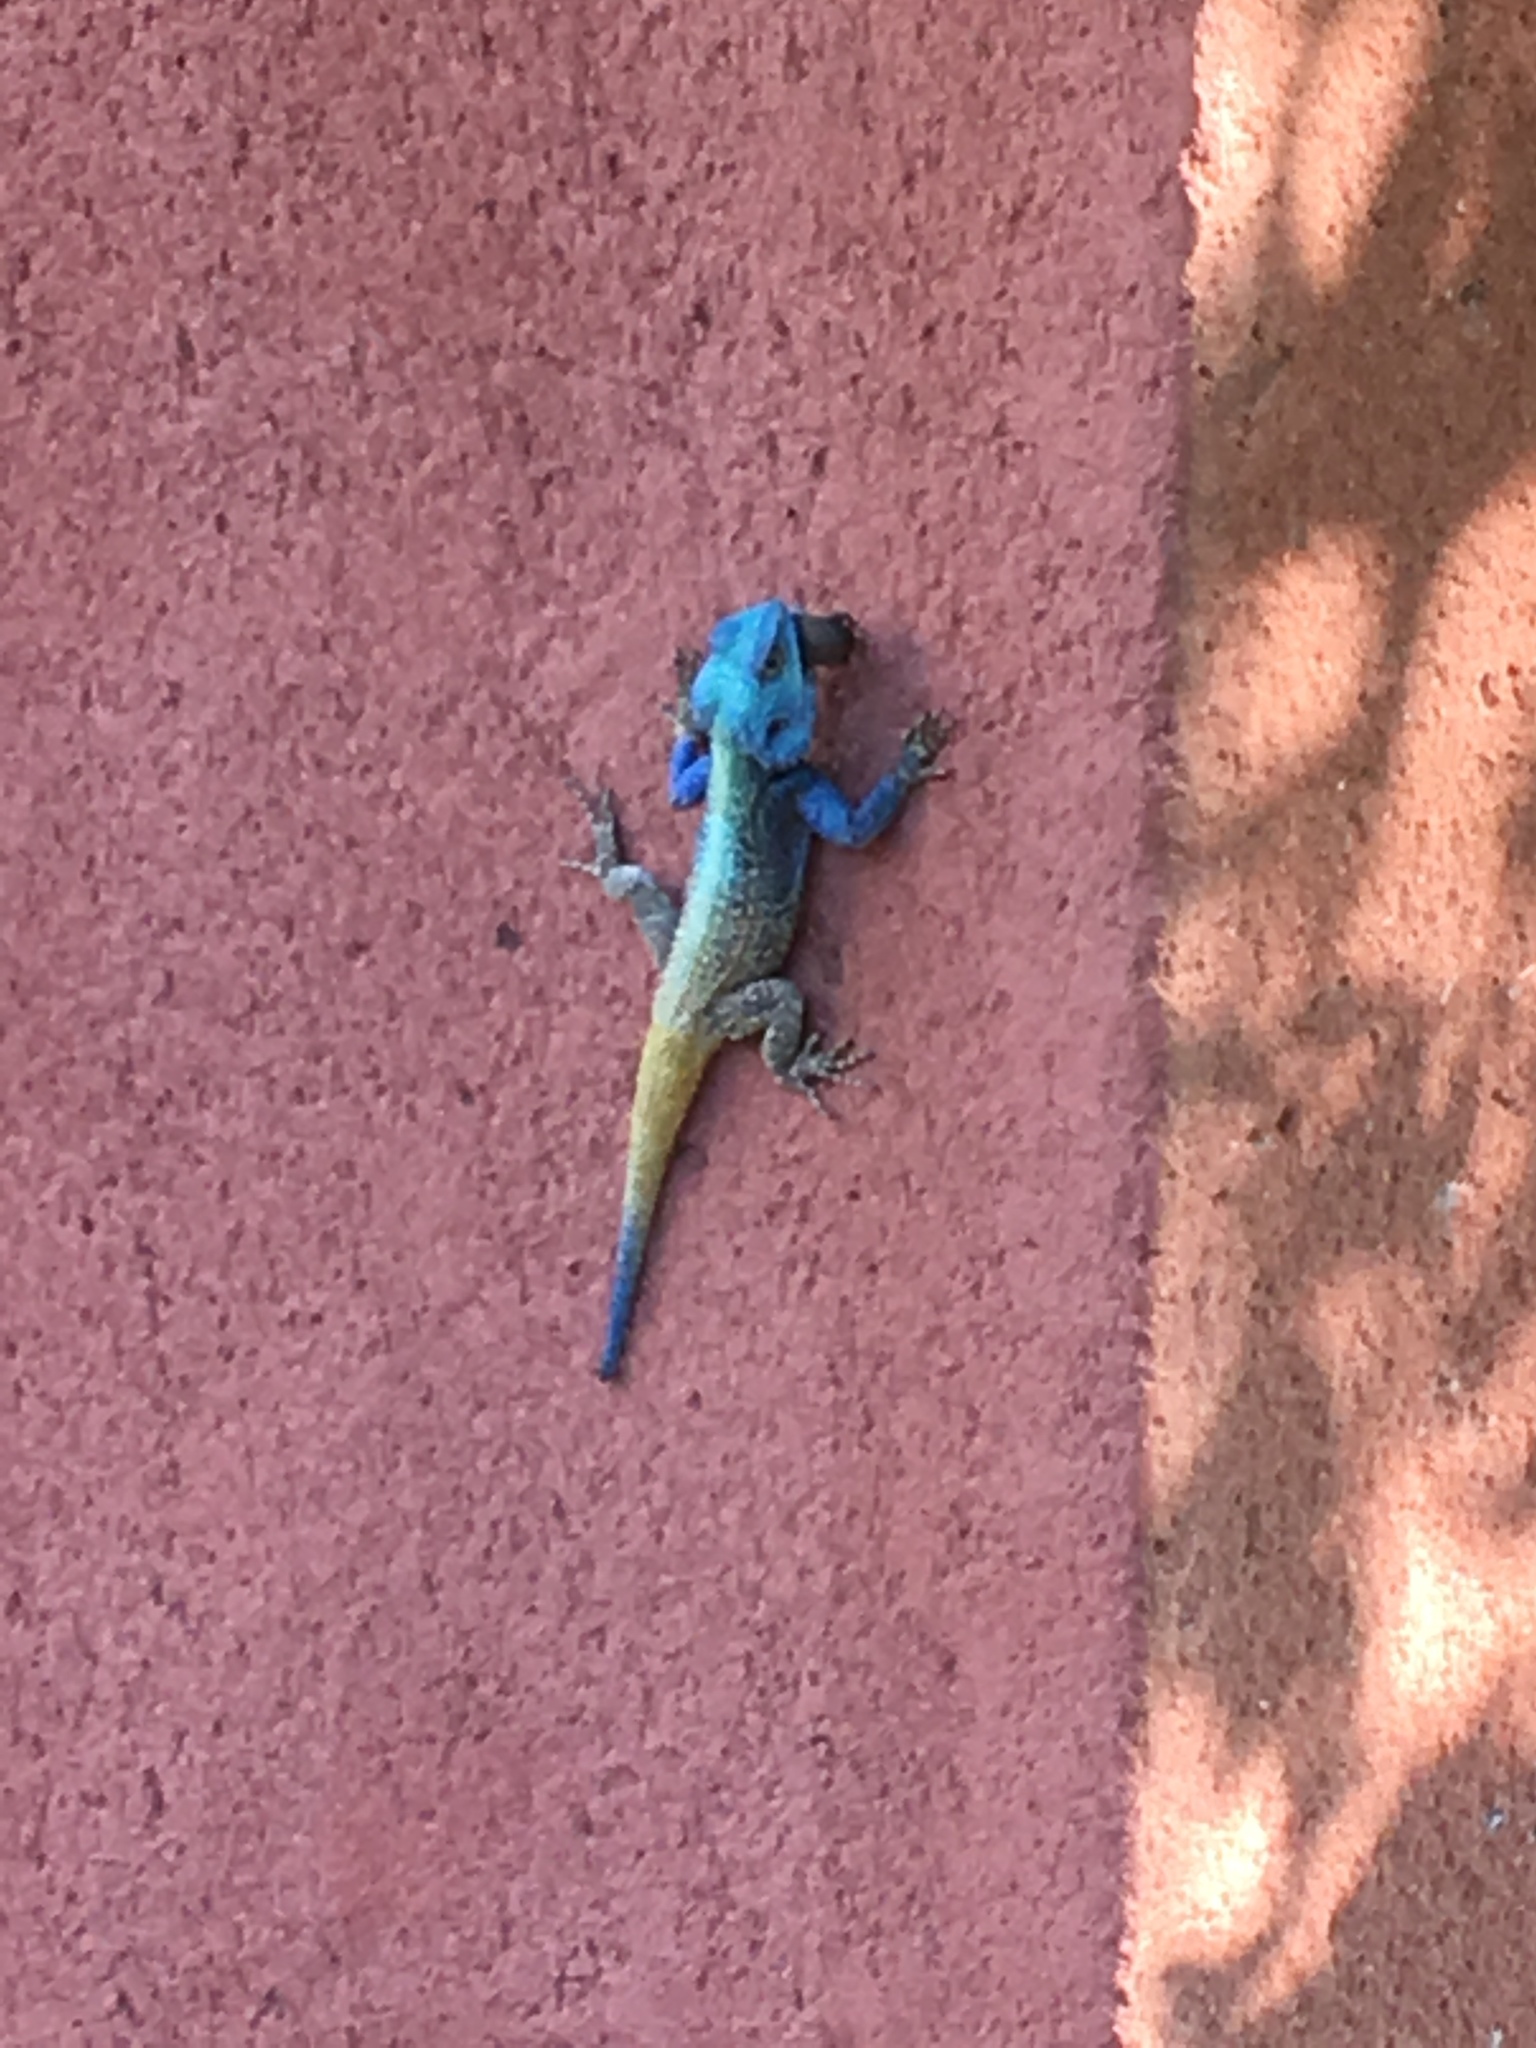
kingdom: Animalia
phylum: Chordata
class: Squamata
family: Agamidae
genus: Acanthocercus
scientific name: Acanthocercus atricollis
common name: Southern tree agama
